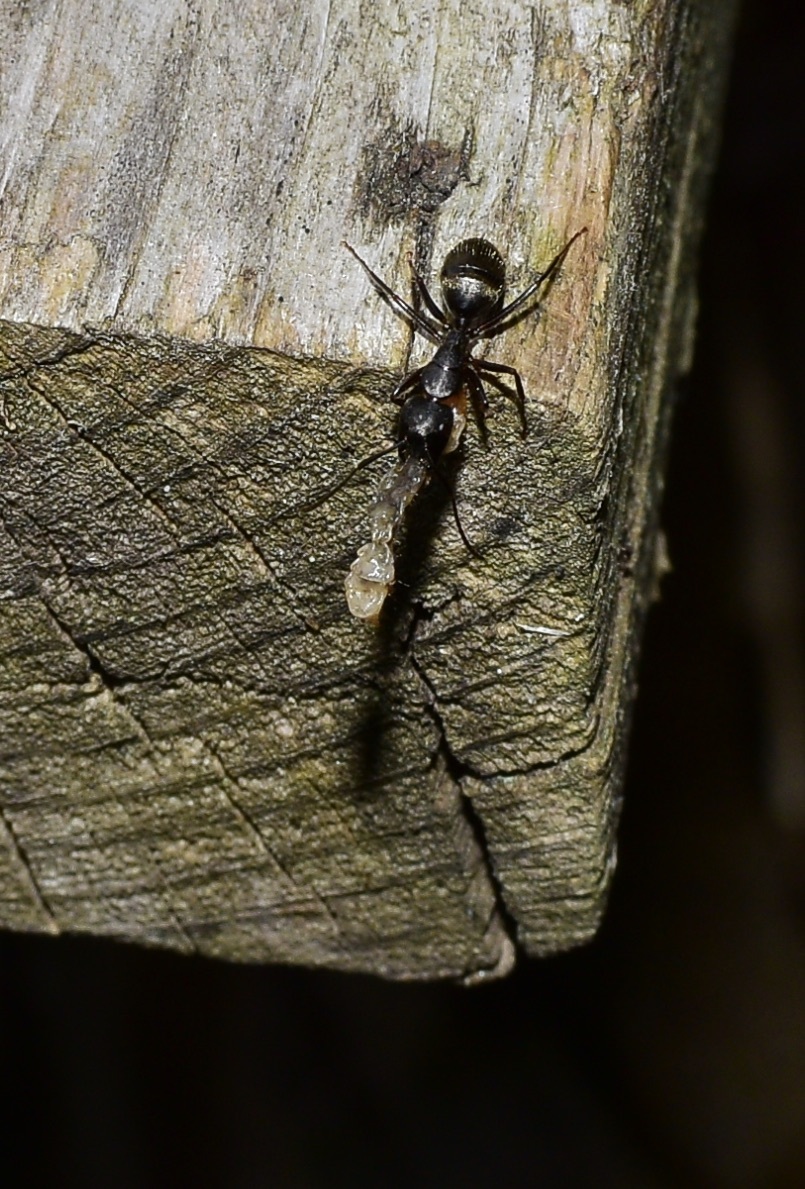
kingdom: Animalia
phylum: Arthropoda
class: Insecta
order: Hymenoptera
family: Formicidae
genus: Camponotus
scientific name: Camponotus pennsylvanicus
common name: Black carpenter ant
